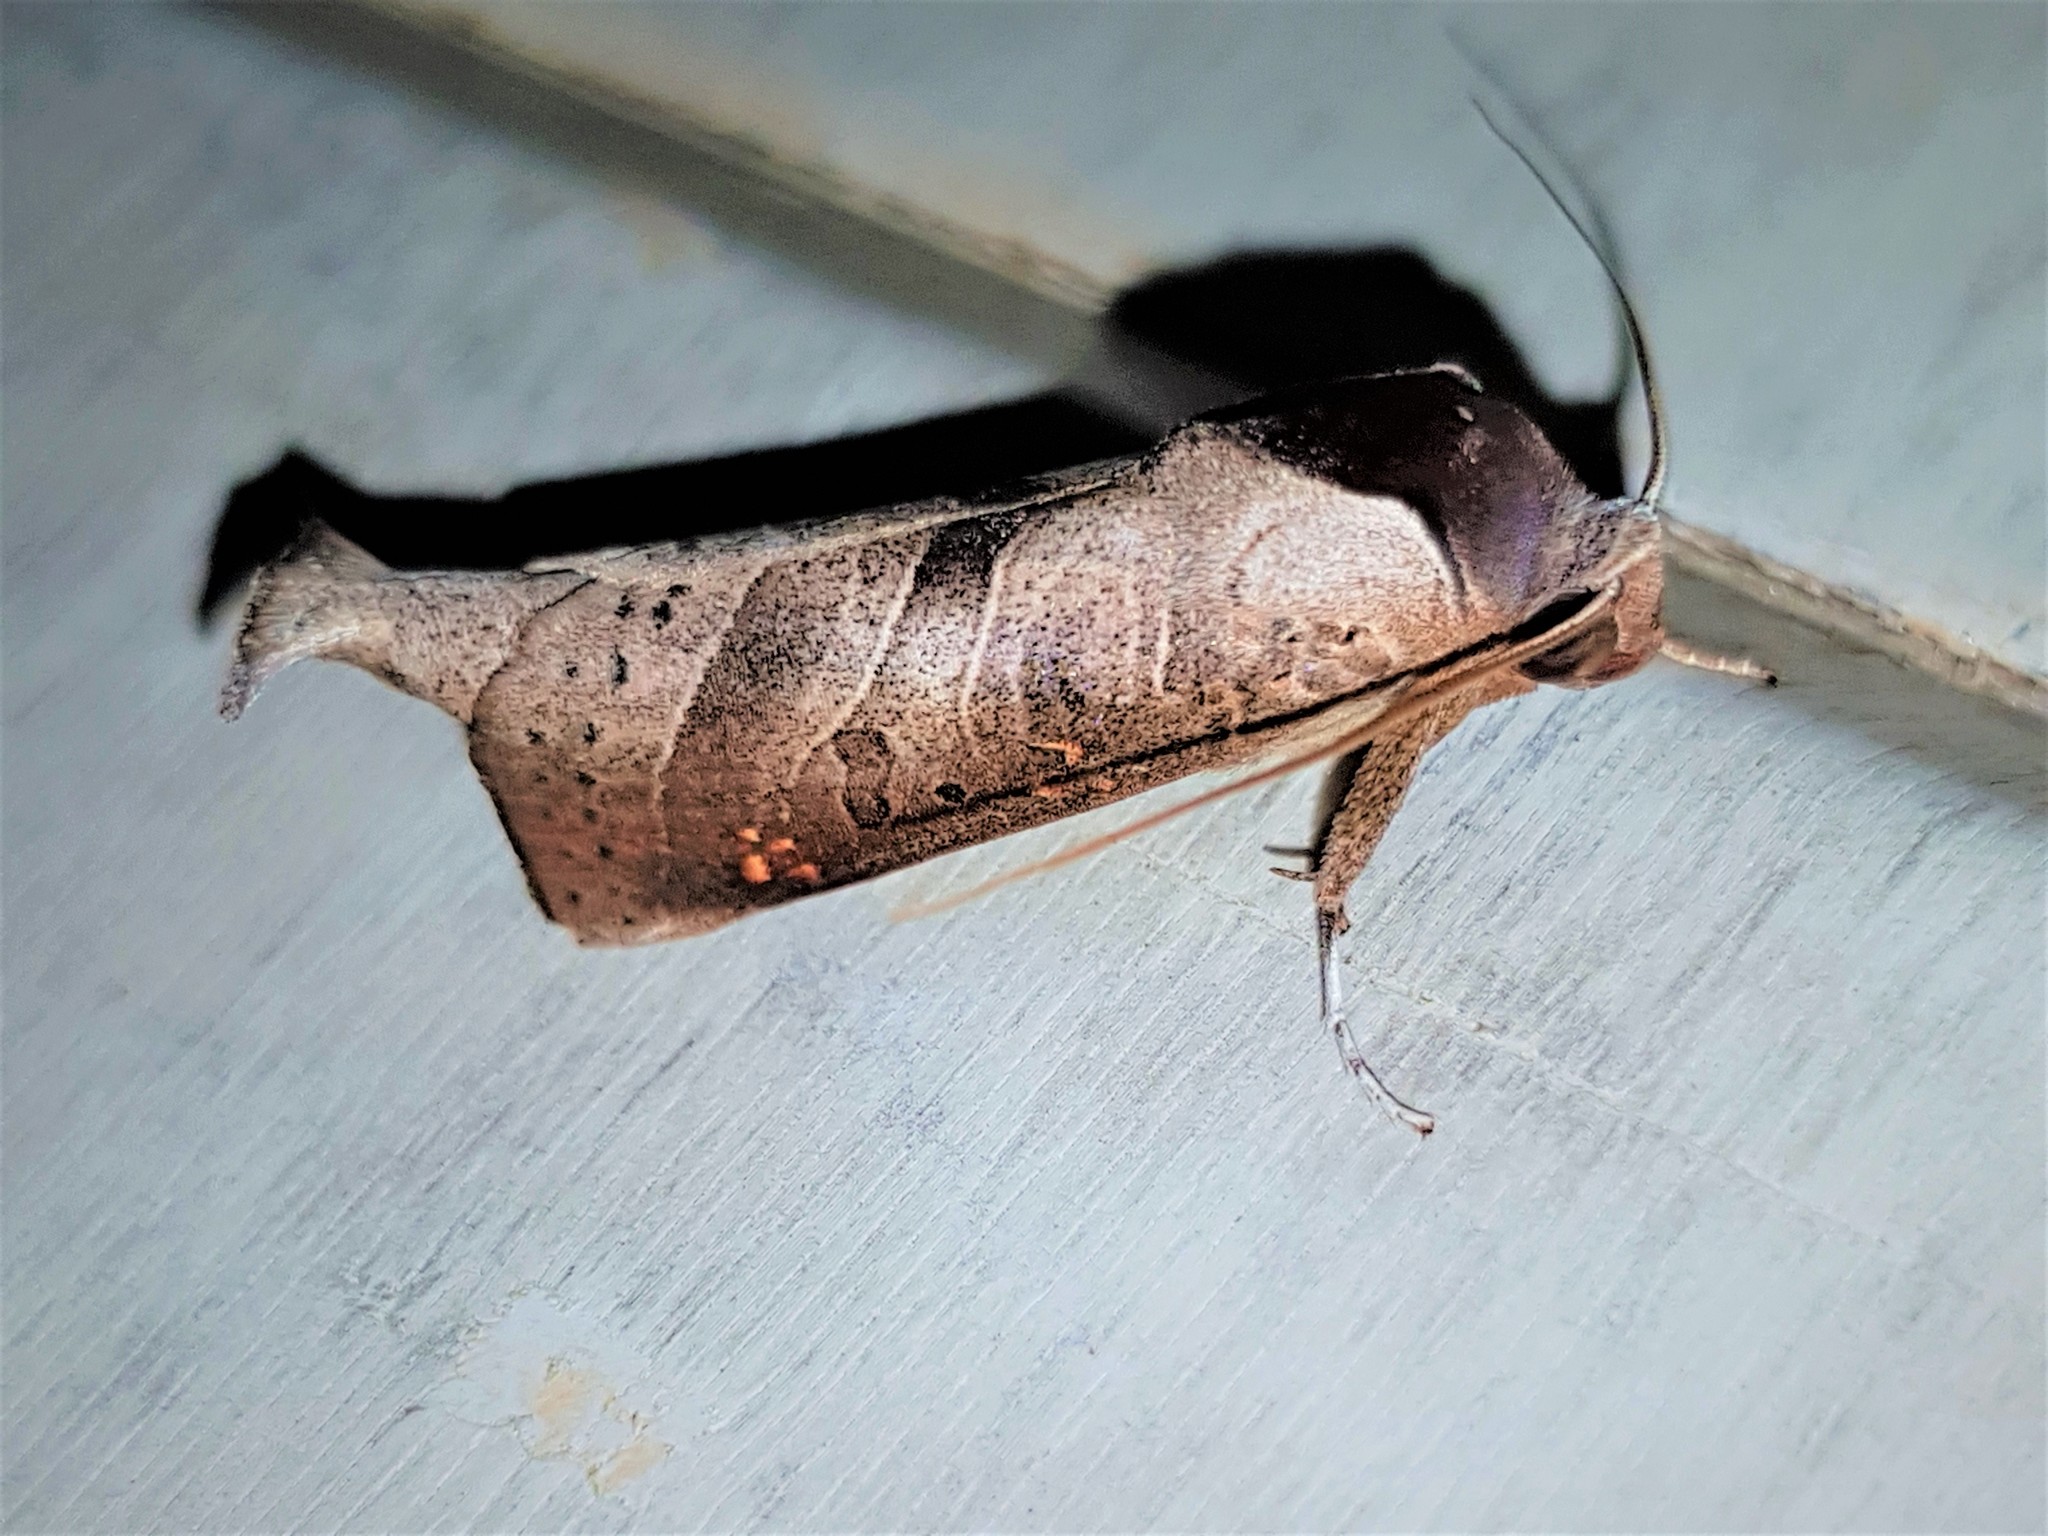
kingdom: Animalia
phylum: Arthropoda
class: Insecta
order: Lepidoptera
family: Notodontidae
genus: Marthula
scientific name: Marthula grisescens
